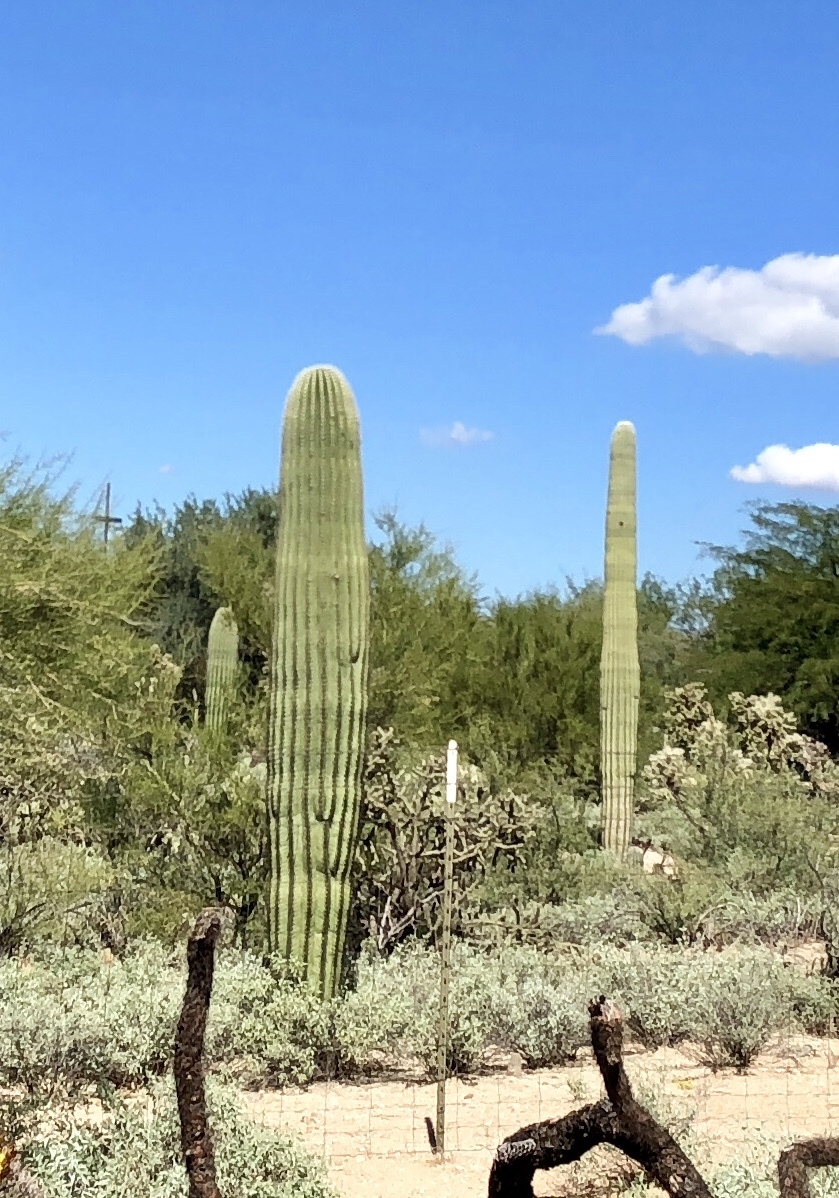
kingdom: Plantae
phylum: Tracheophyta
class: Magnoliopsida
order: Caryophyllales
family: Cactaceae
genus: Carnegiea
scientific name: Carnegiea gigantea
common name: Saguaro
